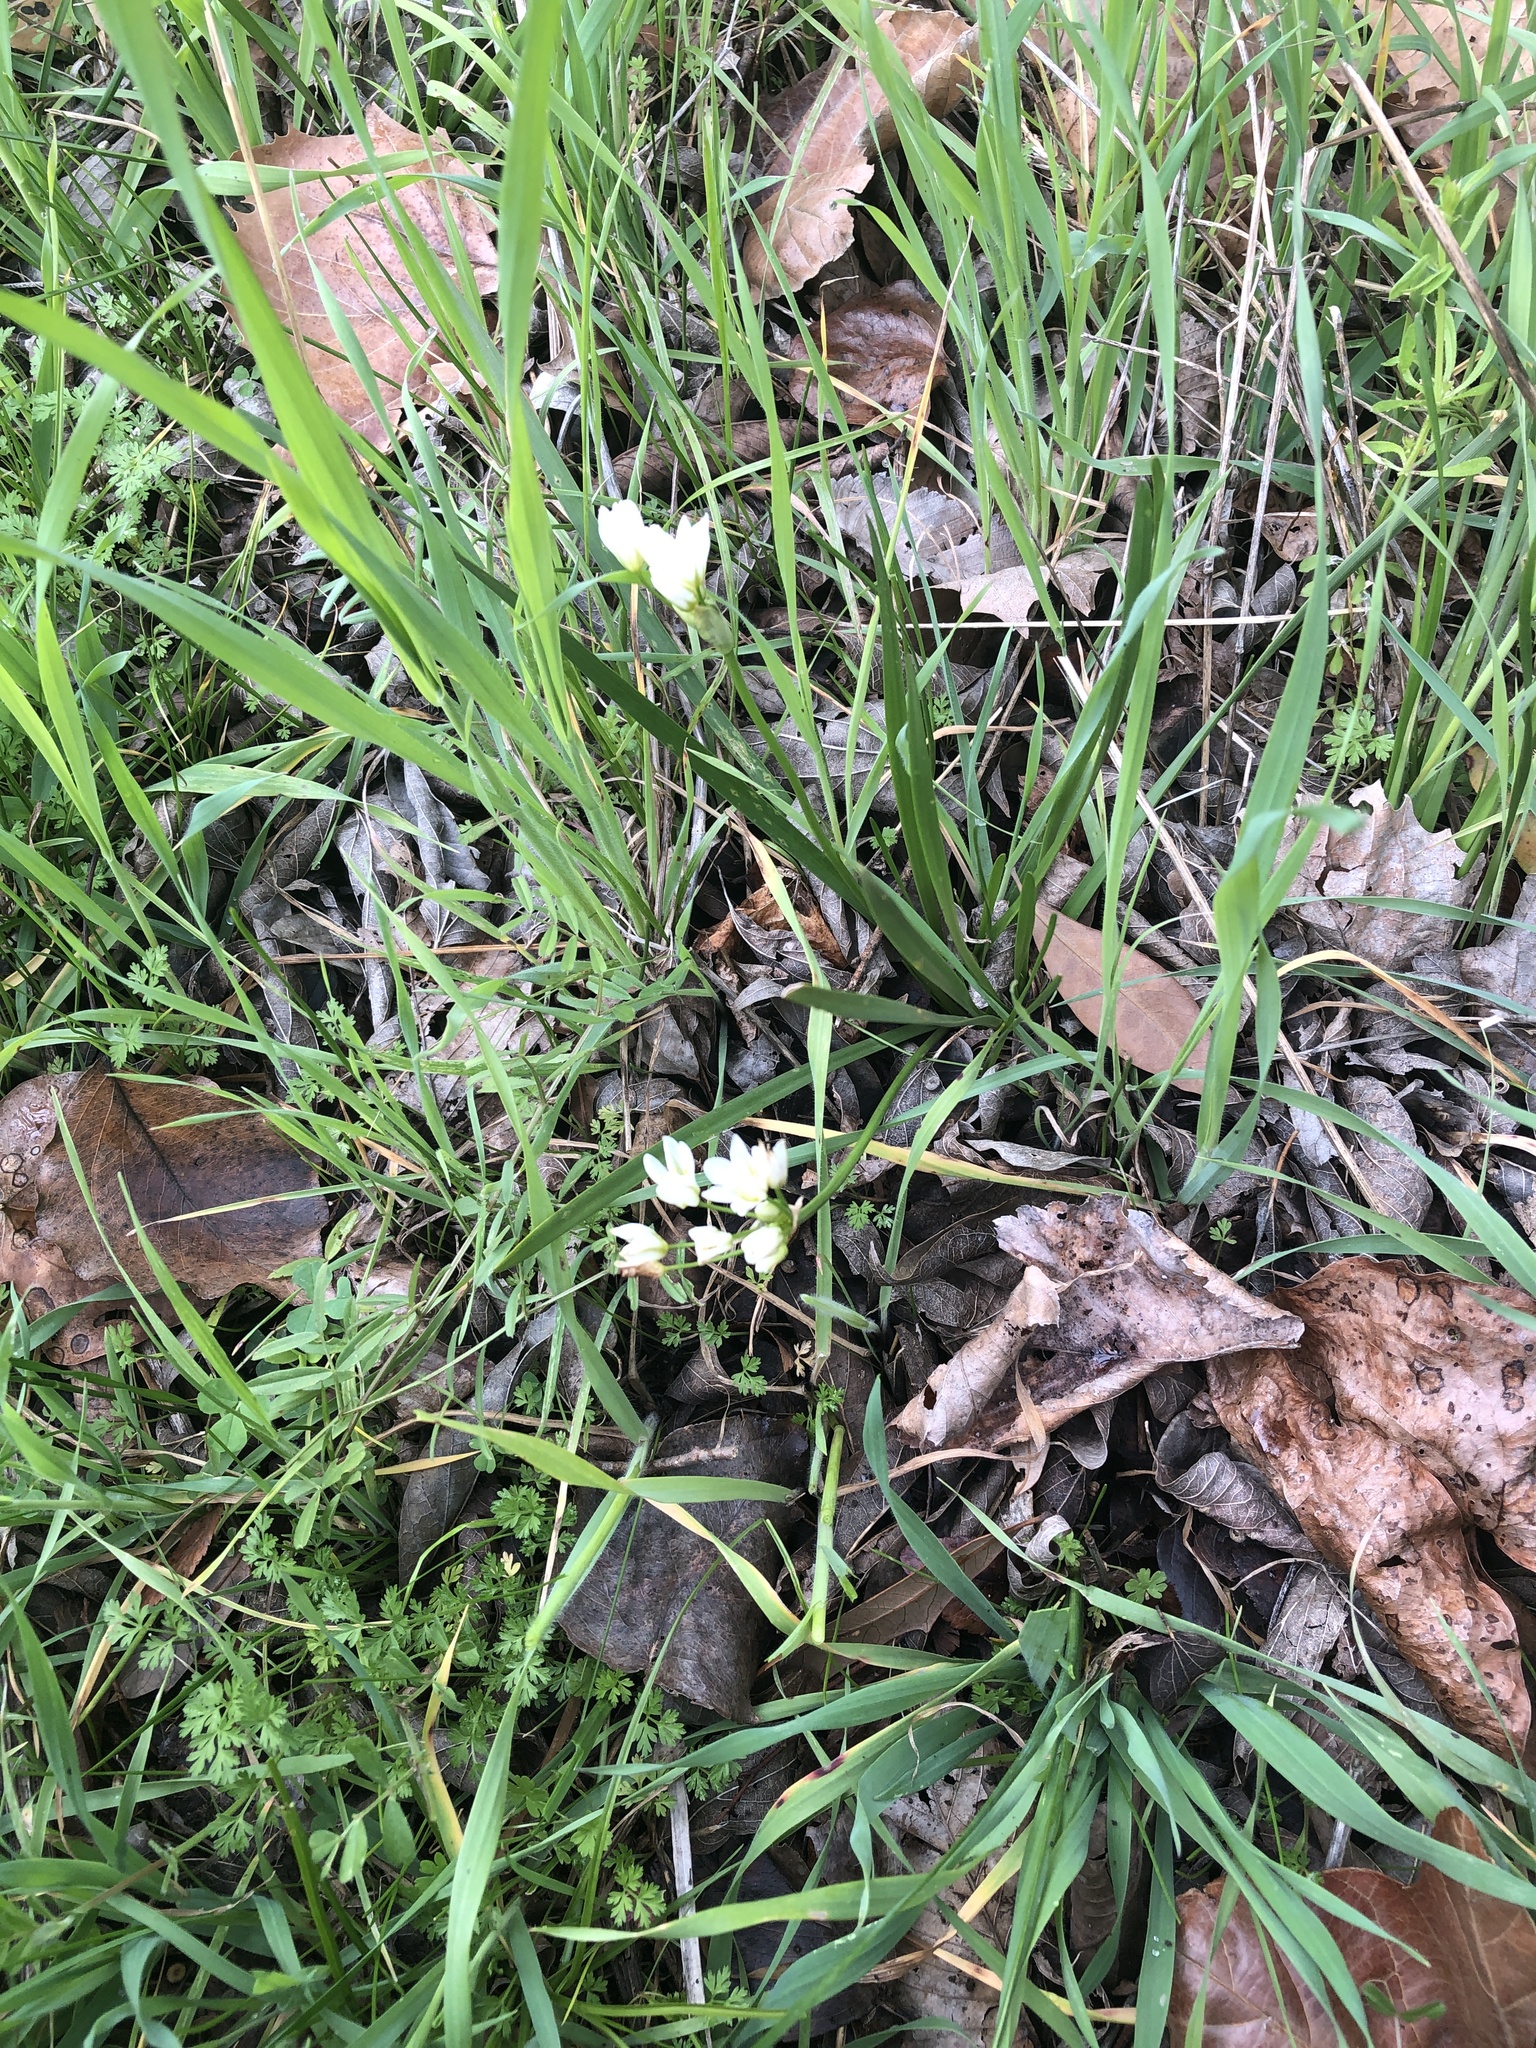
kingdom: Plantae
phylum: Tracheophyta
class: Liliopsida
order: Asparagales
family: Amaryllidaceae
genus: Nothoscordum
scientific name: Nothoscordum bivalve
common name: Crow-poison
